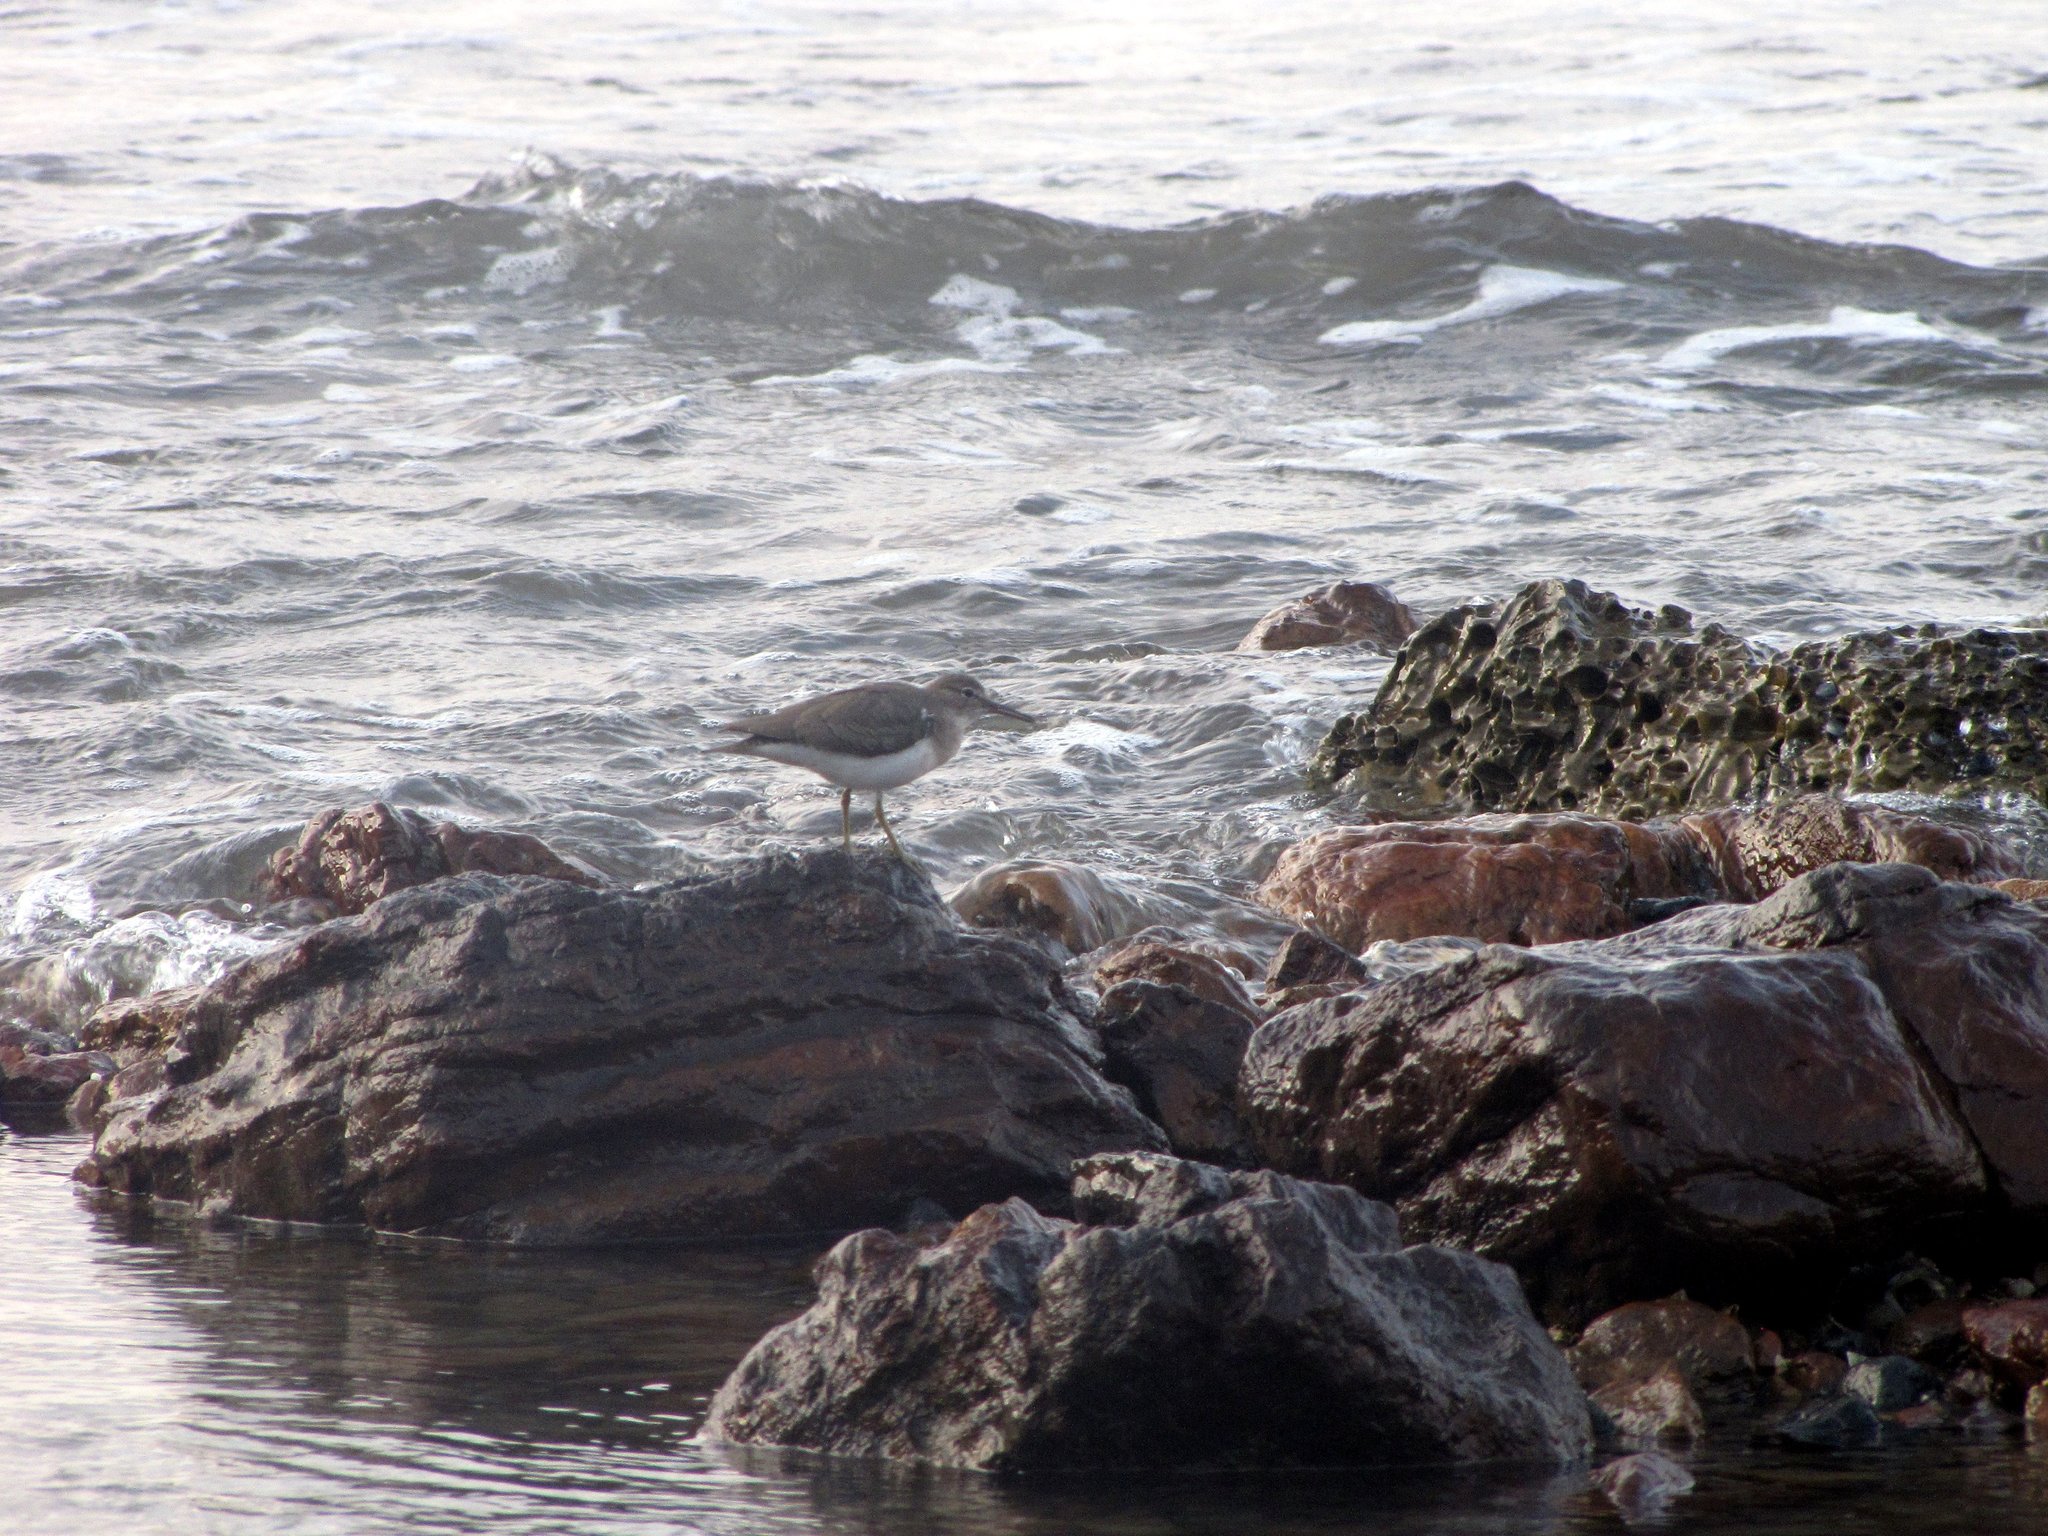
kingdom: Animalia
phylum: Chordata
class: Aves
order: Charadriiformes
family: Scolopacidae
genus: Actitis
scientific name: Actitis macularius
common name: Spotted sandpiper
